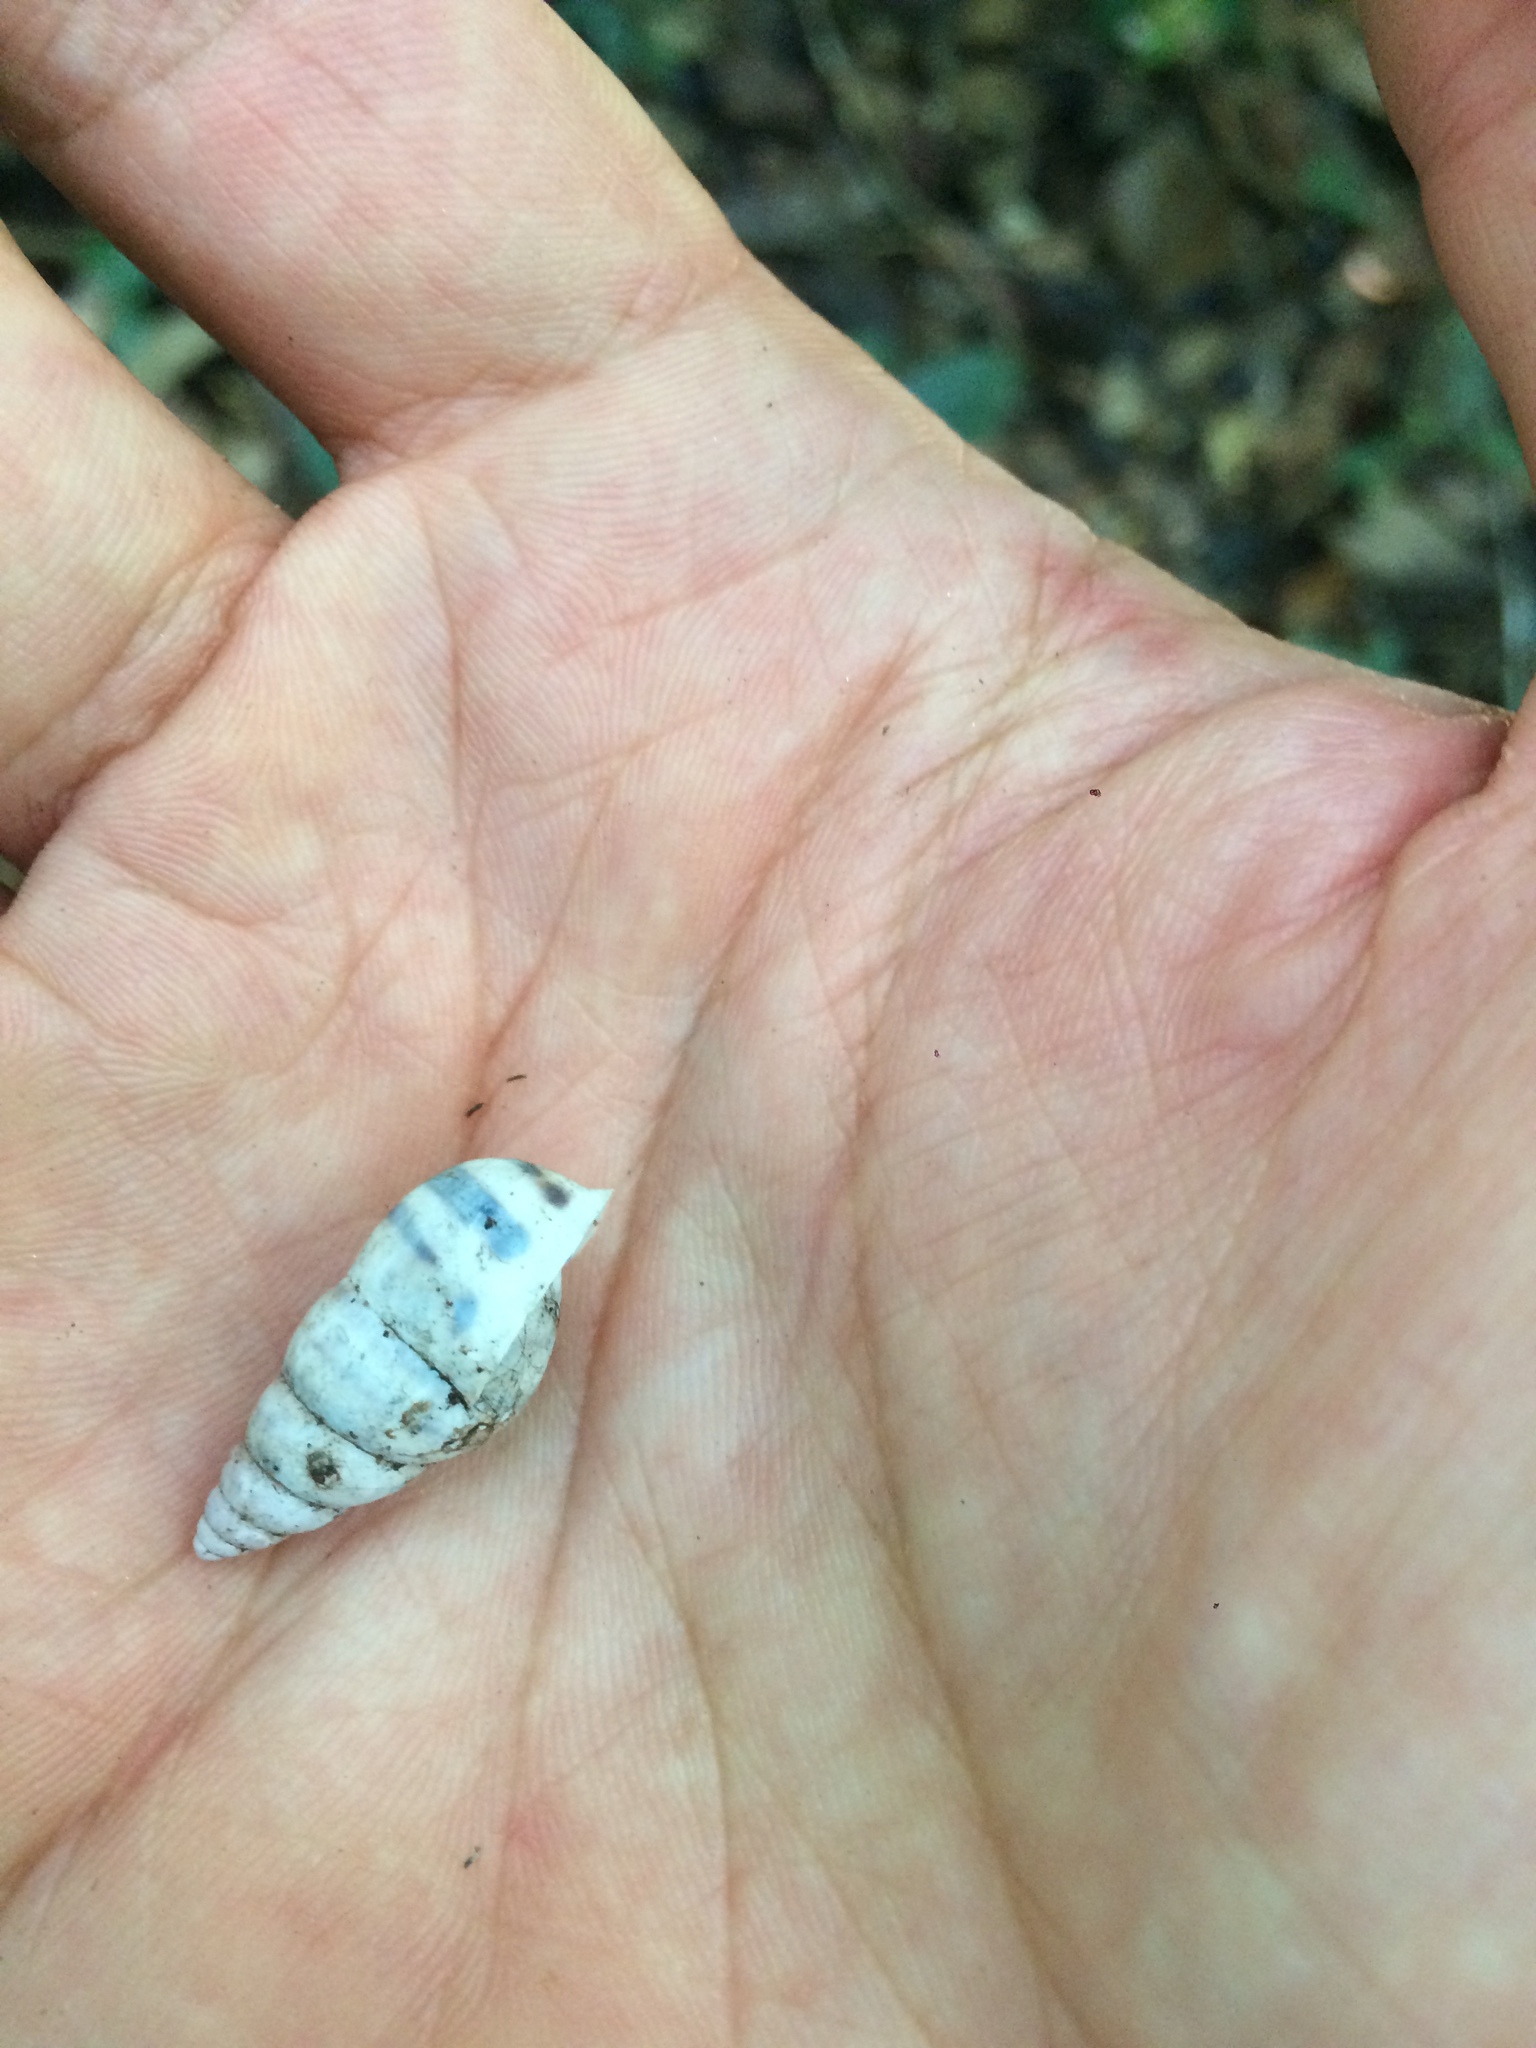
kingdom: Animalia
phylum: Mollusca
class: Gastropoda
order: Stylommatophora
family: Bulimulidae
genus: Drymaeus
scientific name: Drymaeus flexilabris
